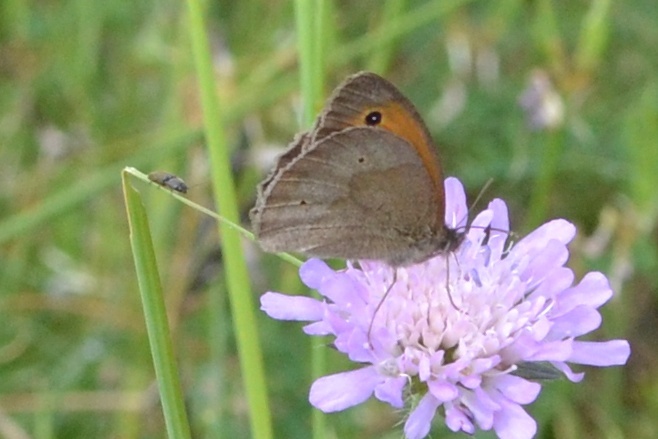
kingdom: Animalia
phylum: Arthropoda
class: Insecta
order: Lepidoptera
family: Nymphalidae
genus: Maniola
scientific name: Maniola jurtina
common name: Meadow brown
